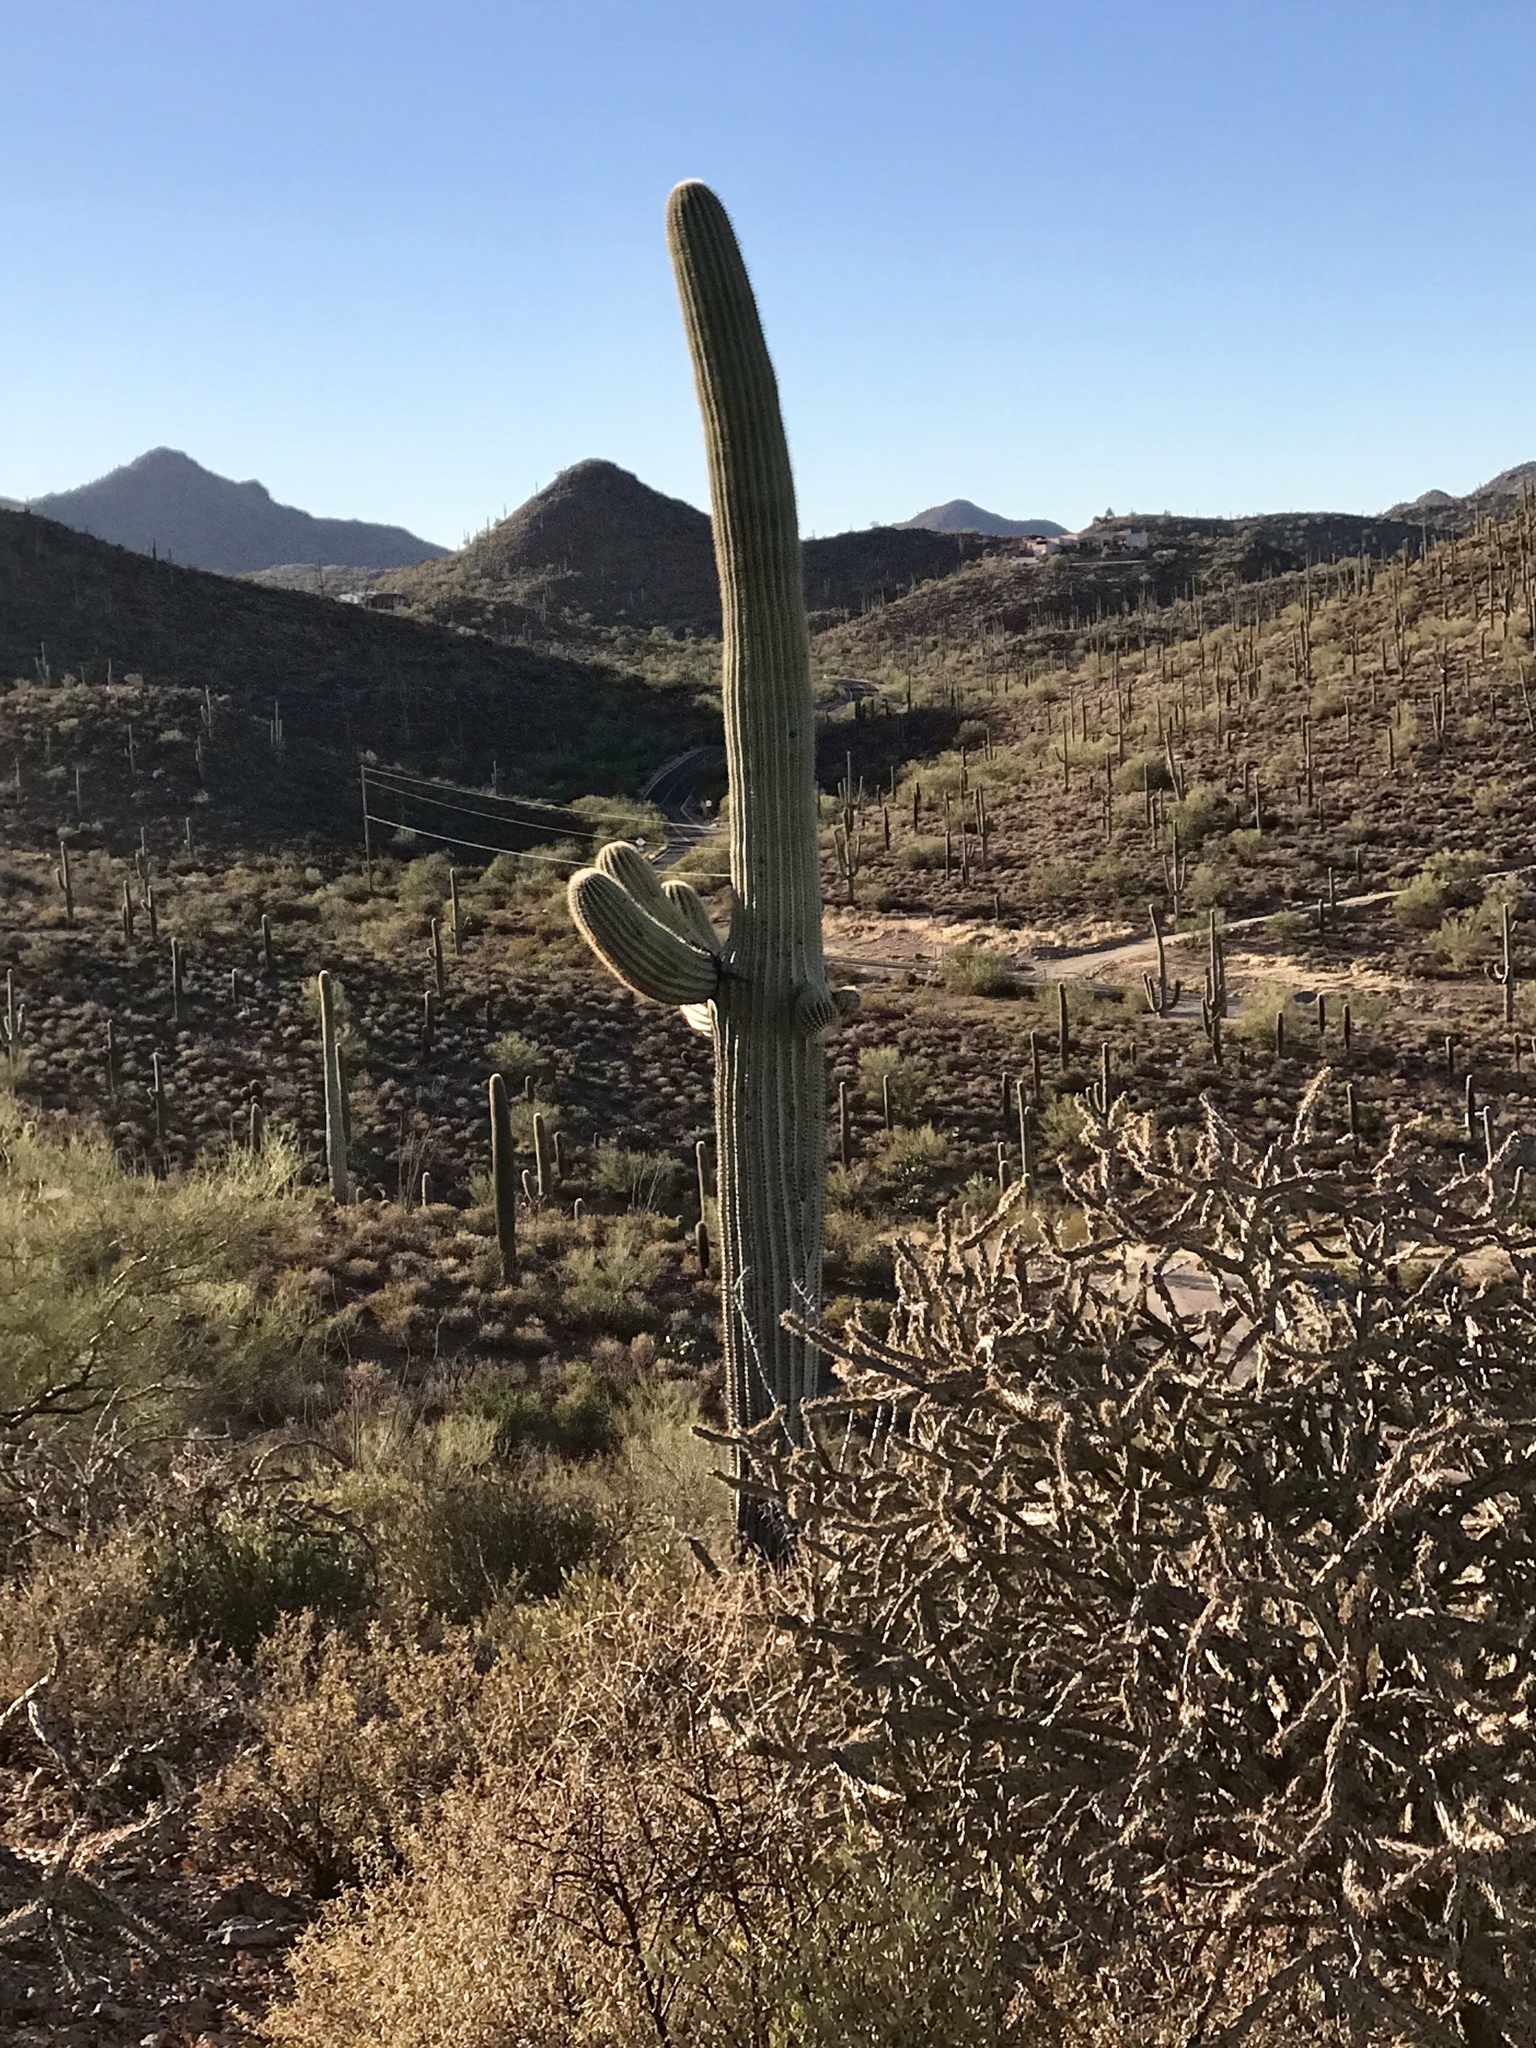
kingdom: Plantae
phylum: Tracheophyta
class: Magnoliopsida
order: Caryophyllales
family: Cactaceae
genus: Carnegiea
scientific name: Carnegiea gigantea
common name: Saguaro
